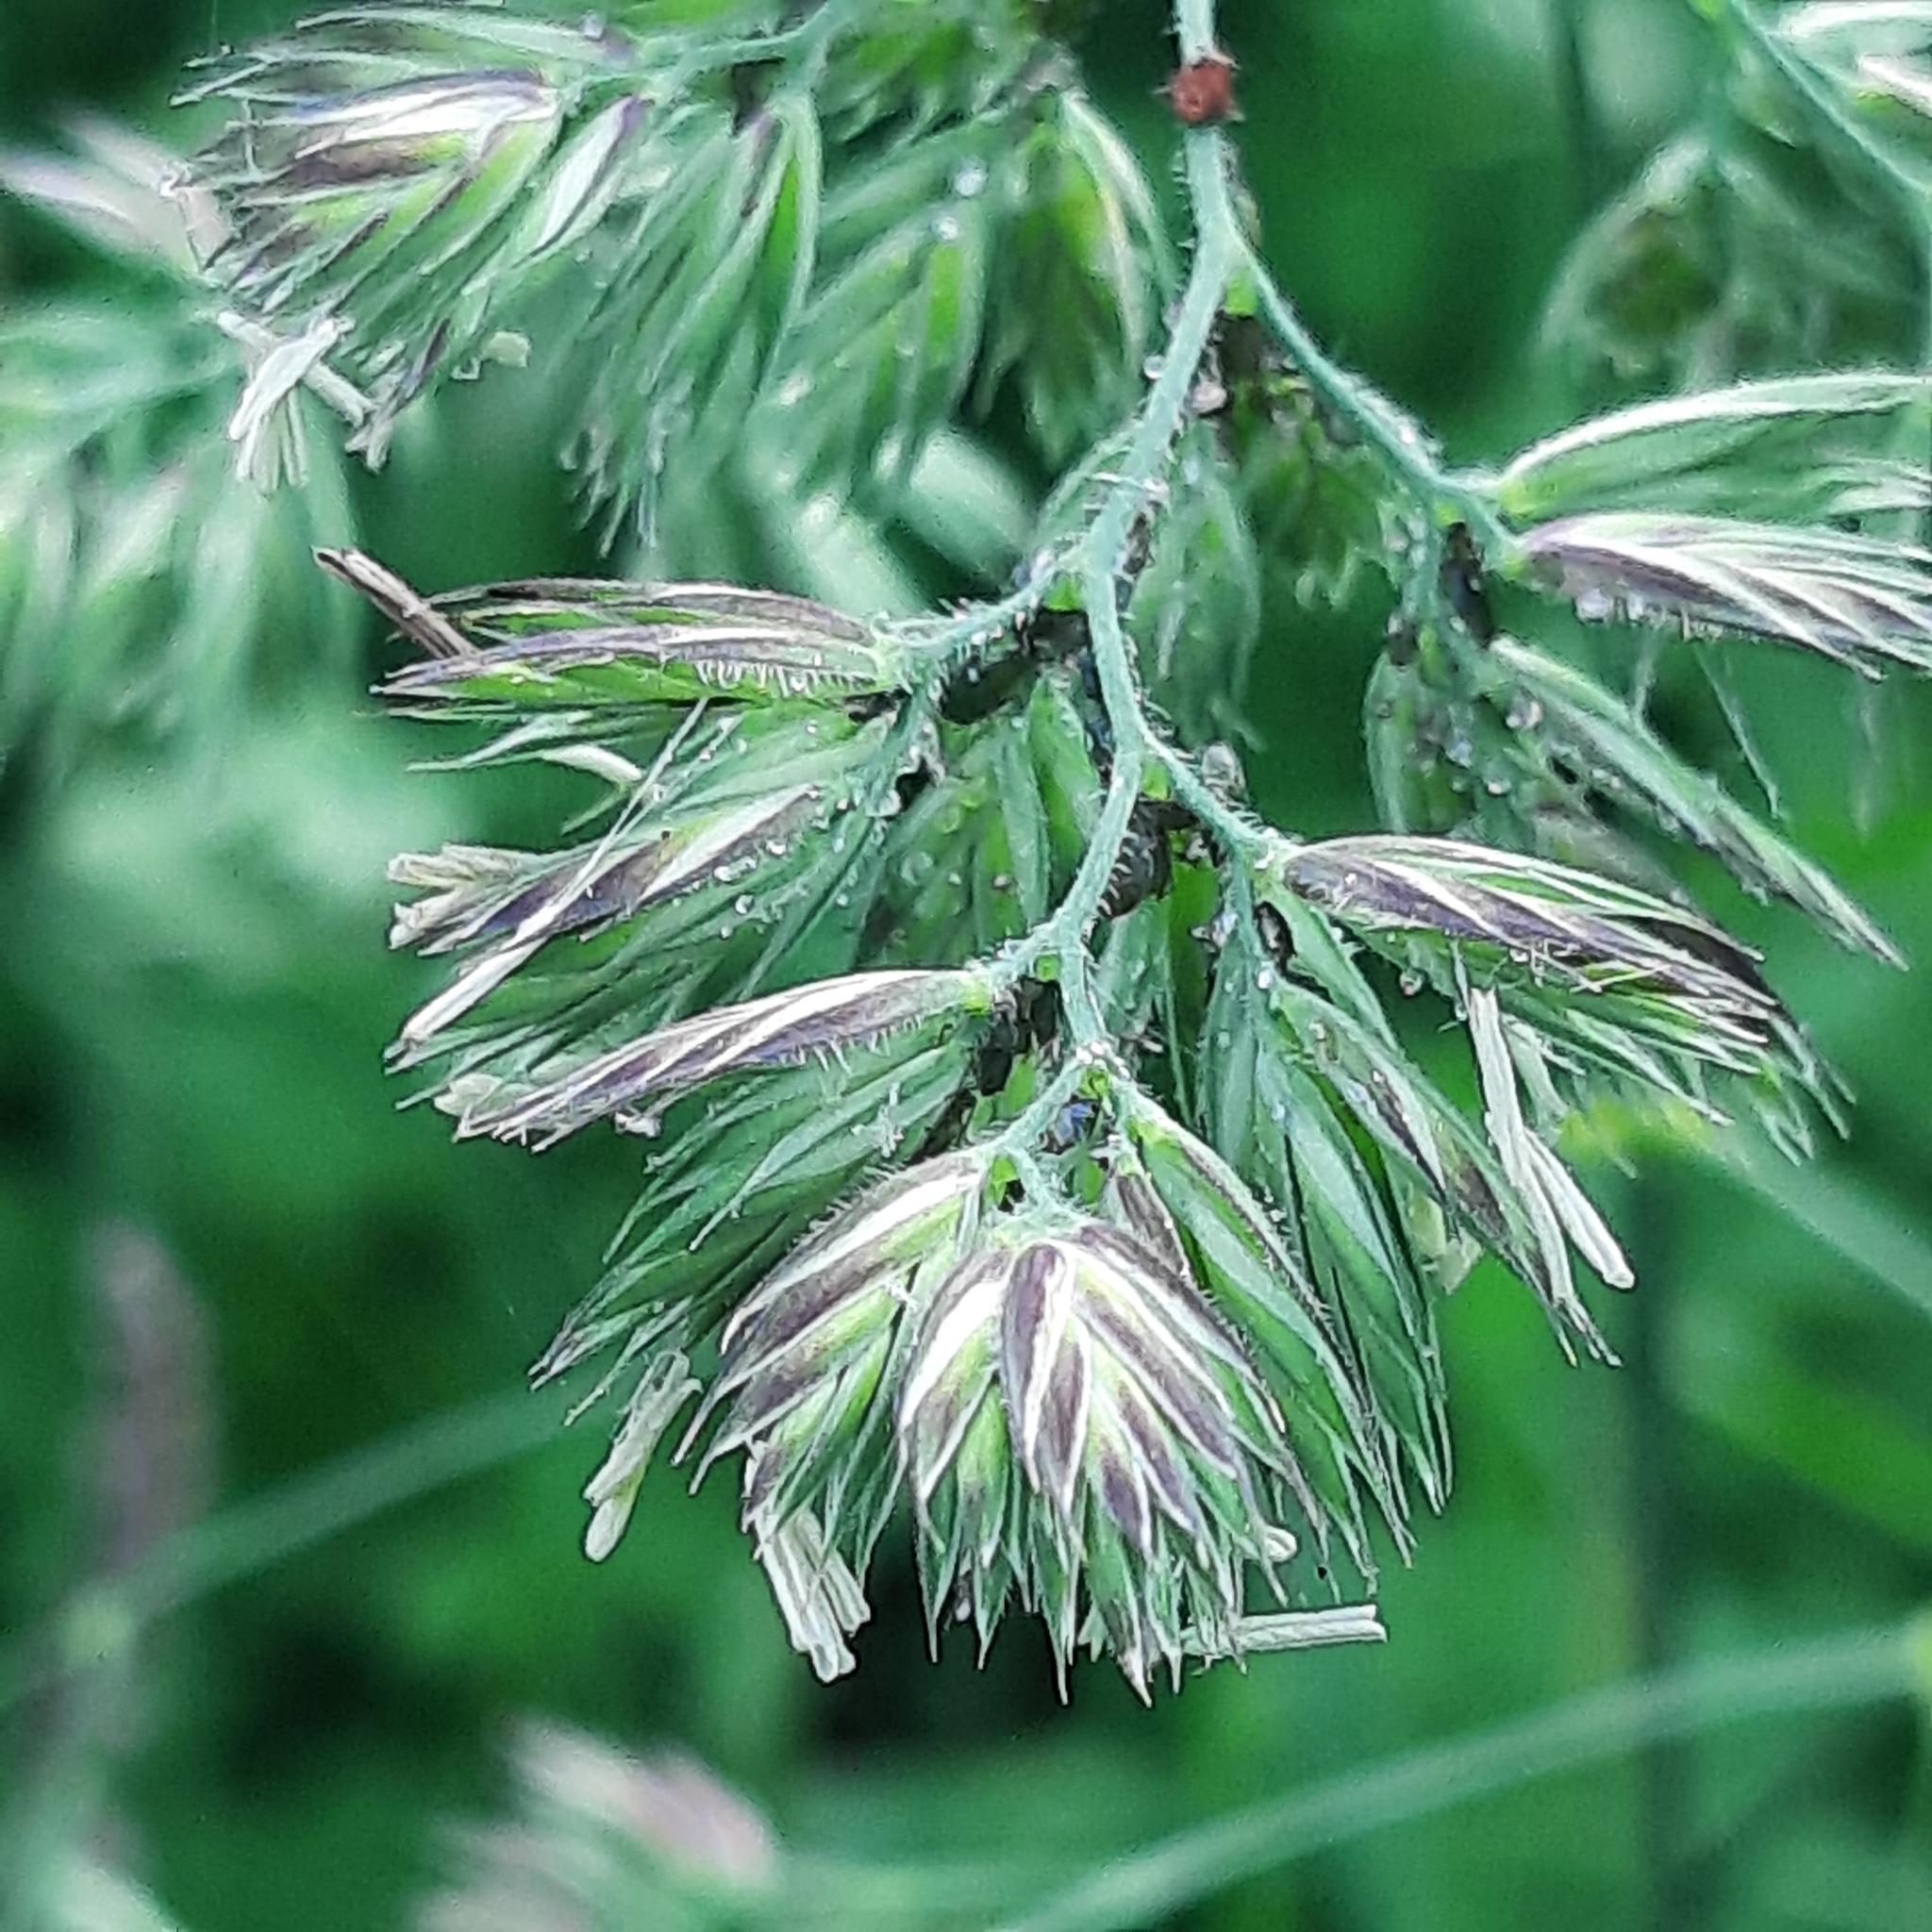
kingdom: Plantae
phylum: Tracheophyta
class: Liliopsida
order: Poales
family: Poaceae
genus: Dactylis
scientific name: Dactylis glomerata
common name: Orchardgrass
